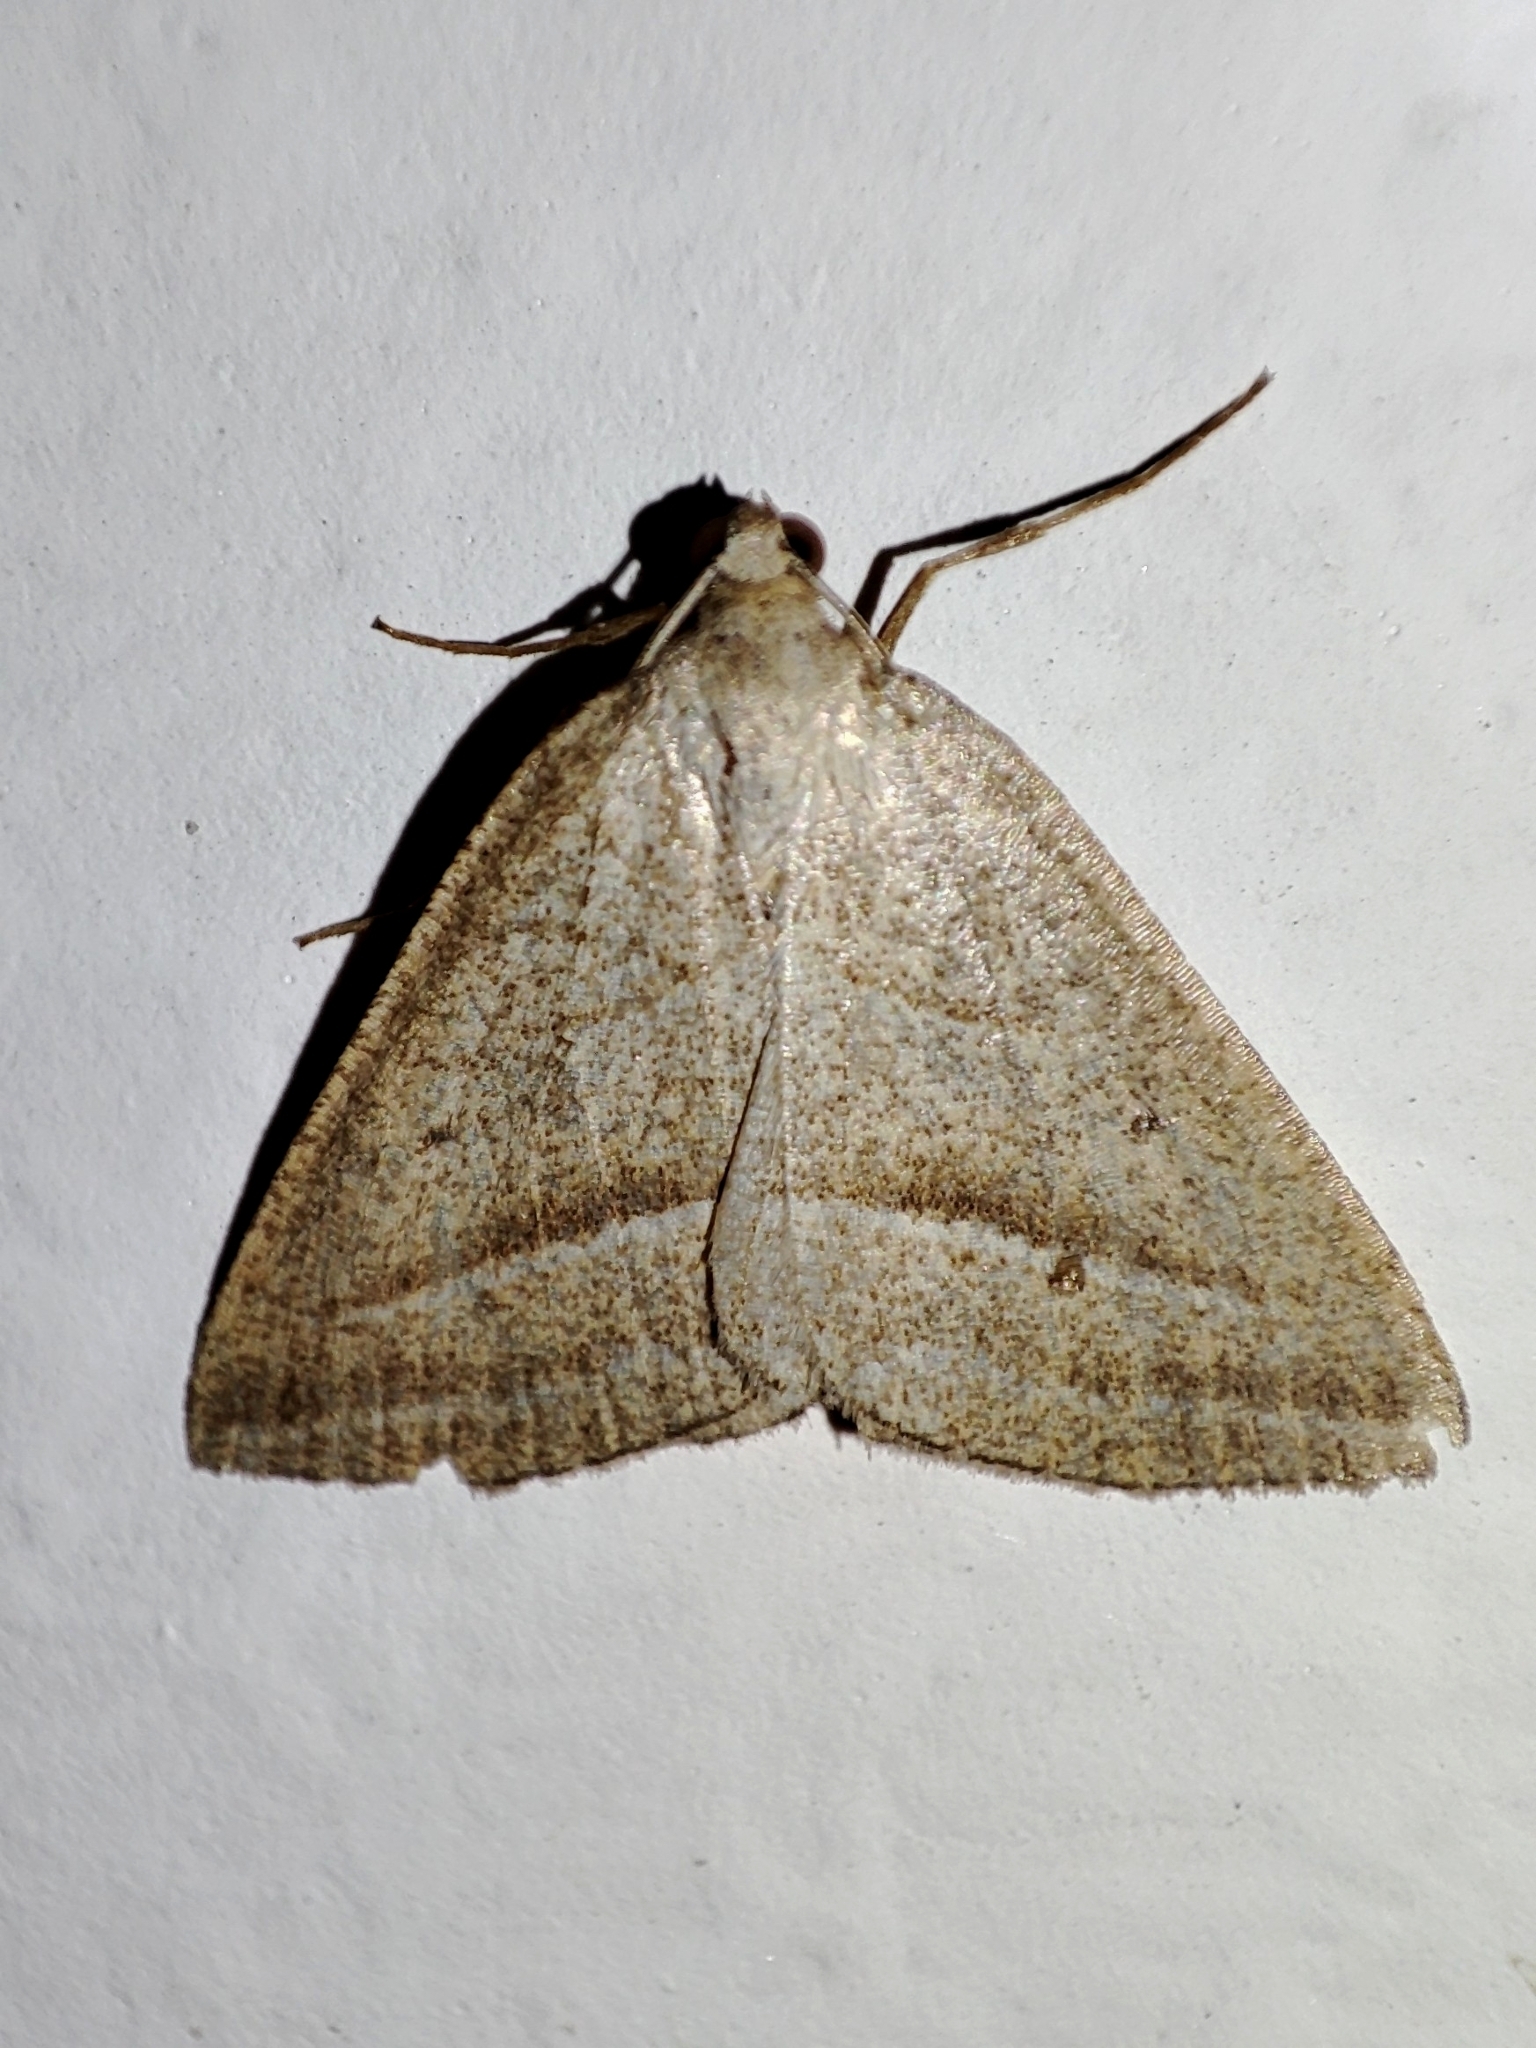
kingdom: Animalia
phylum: Arthropoda
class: Insecta
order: Lepidoptera
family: Pterophoridae
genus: Pterophorus
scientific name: Pterophorus Petrophora chlorosata
